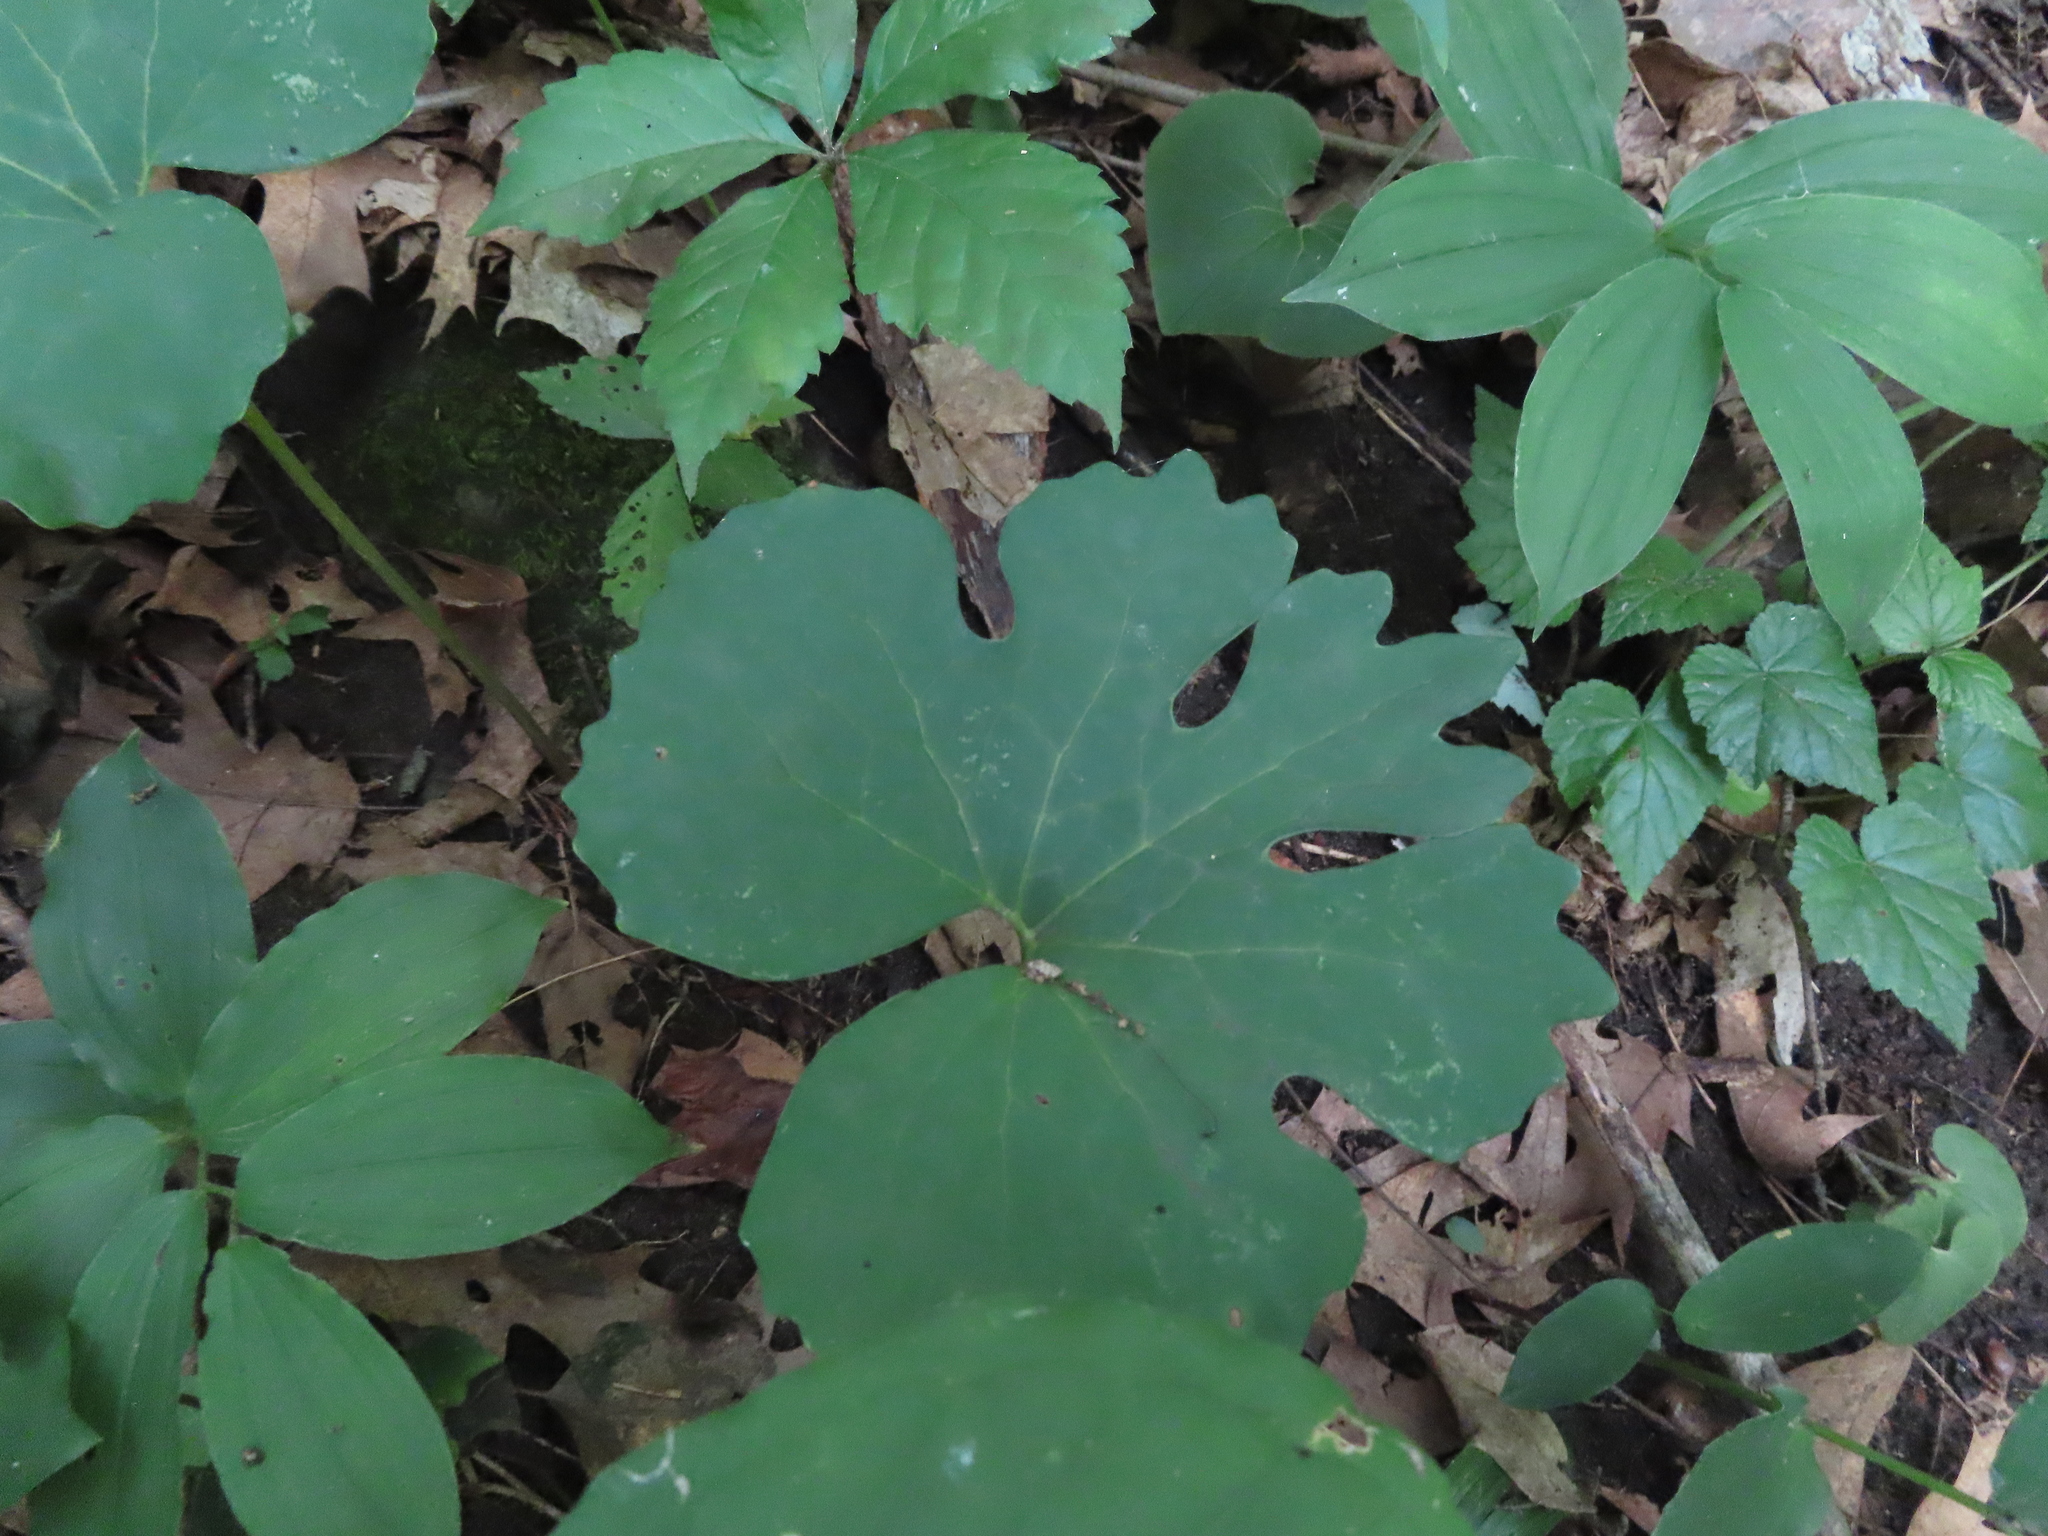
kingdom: Plantae
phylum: Tracheophyta
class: Magnoliopsida
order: Ranunculales
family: Papaveraceae
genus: Sanguinaria
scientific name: Sanguinaria canadensis
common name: Bloodroot
